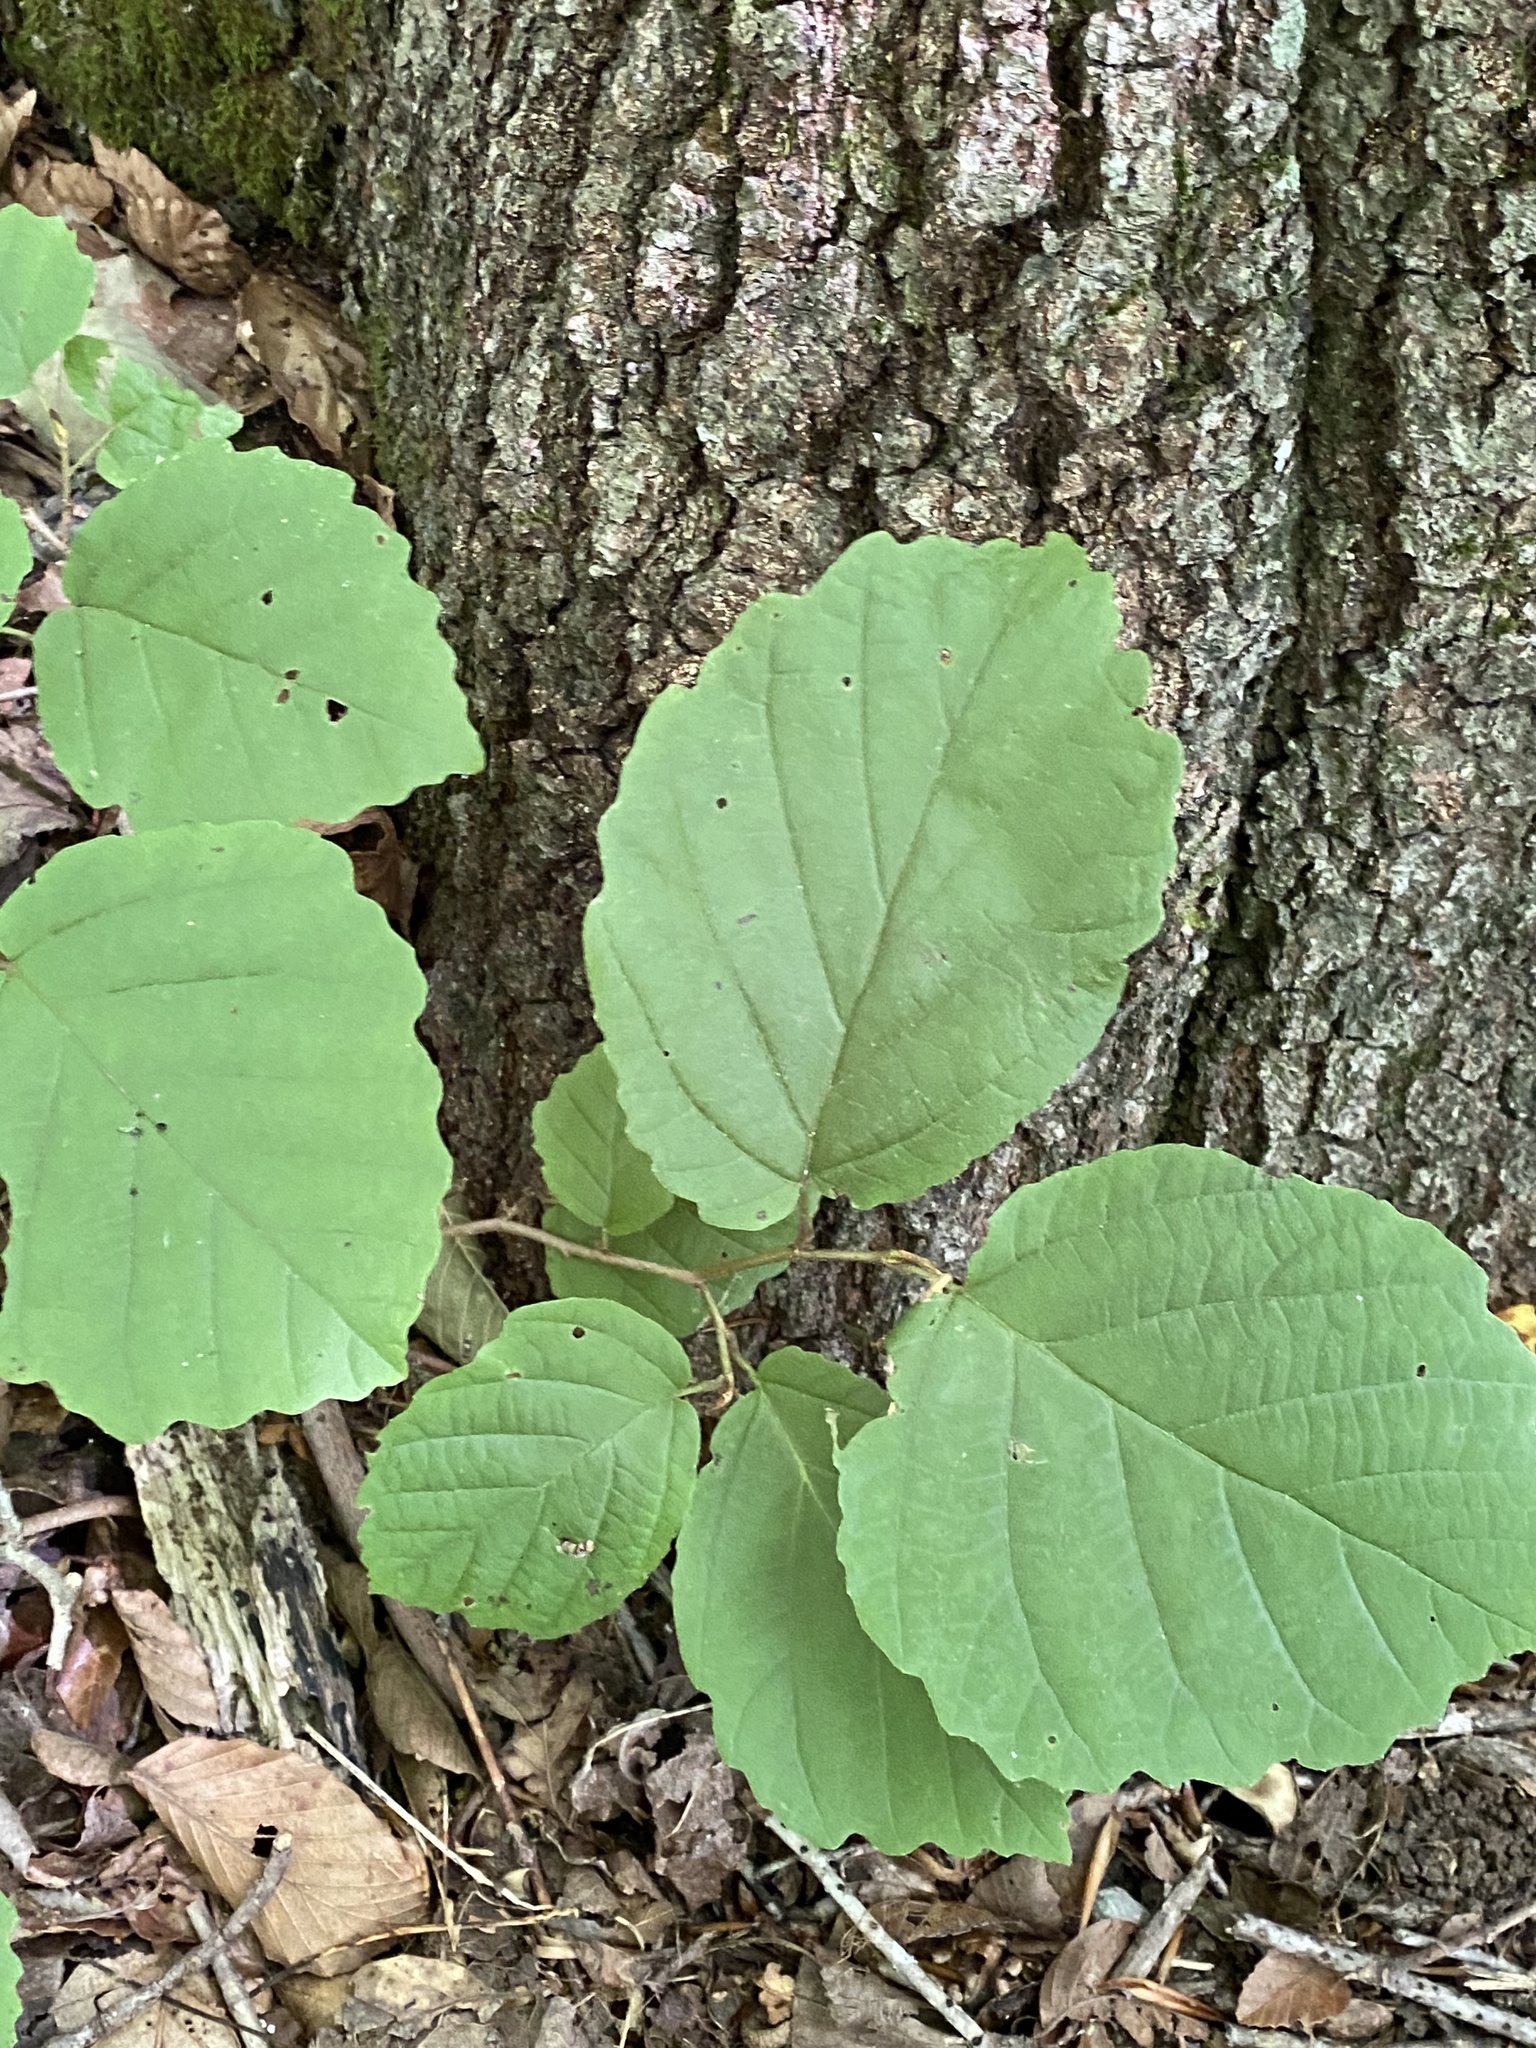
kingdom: Plantae
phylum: Tracheophyta
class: Magnoliopsida
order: Saxifragales
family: Hamamelidaceae
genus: Hamamelis
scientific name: Hamamelis virginiana
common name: Witch-hazel
